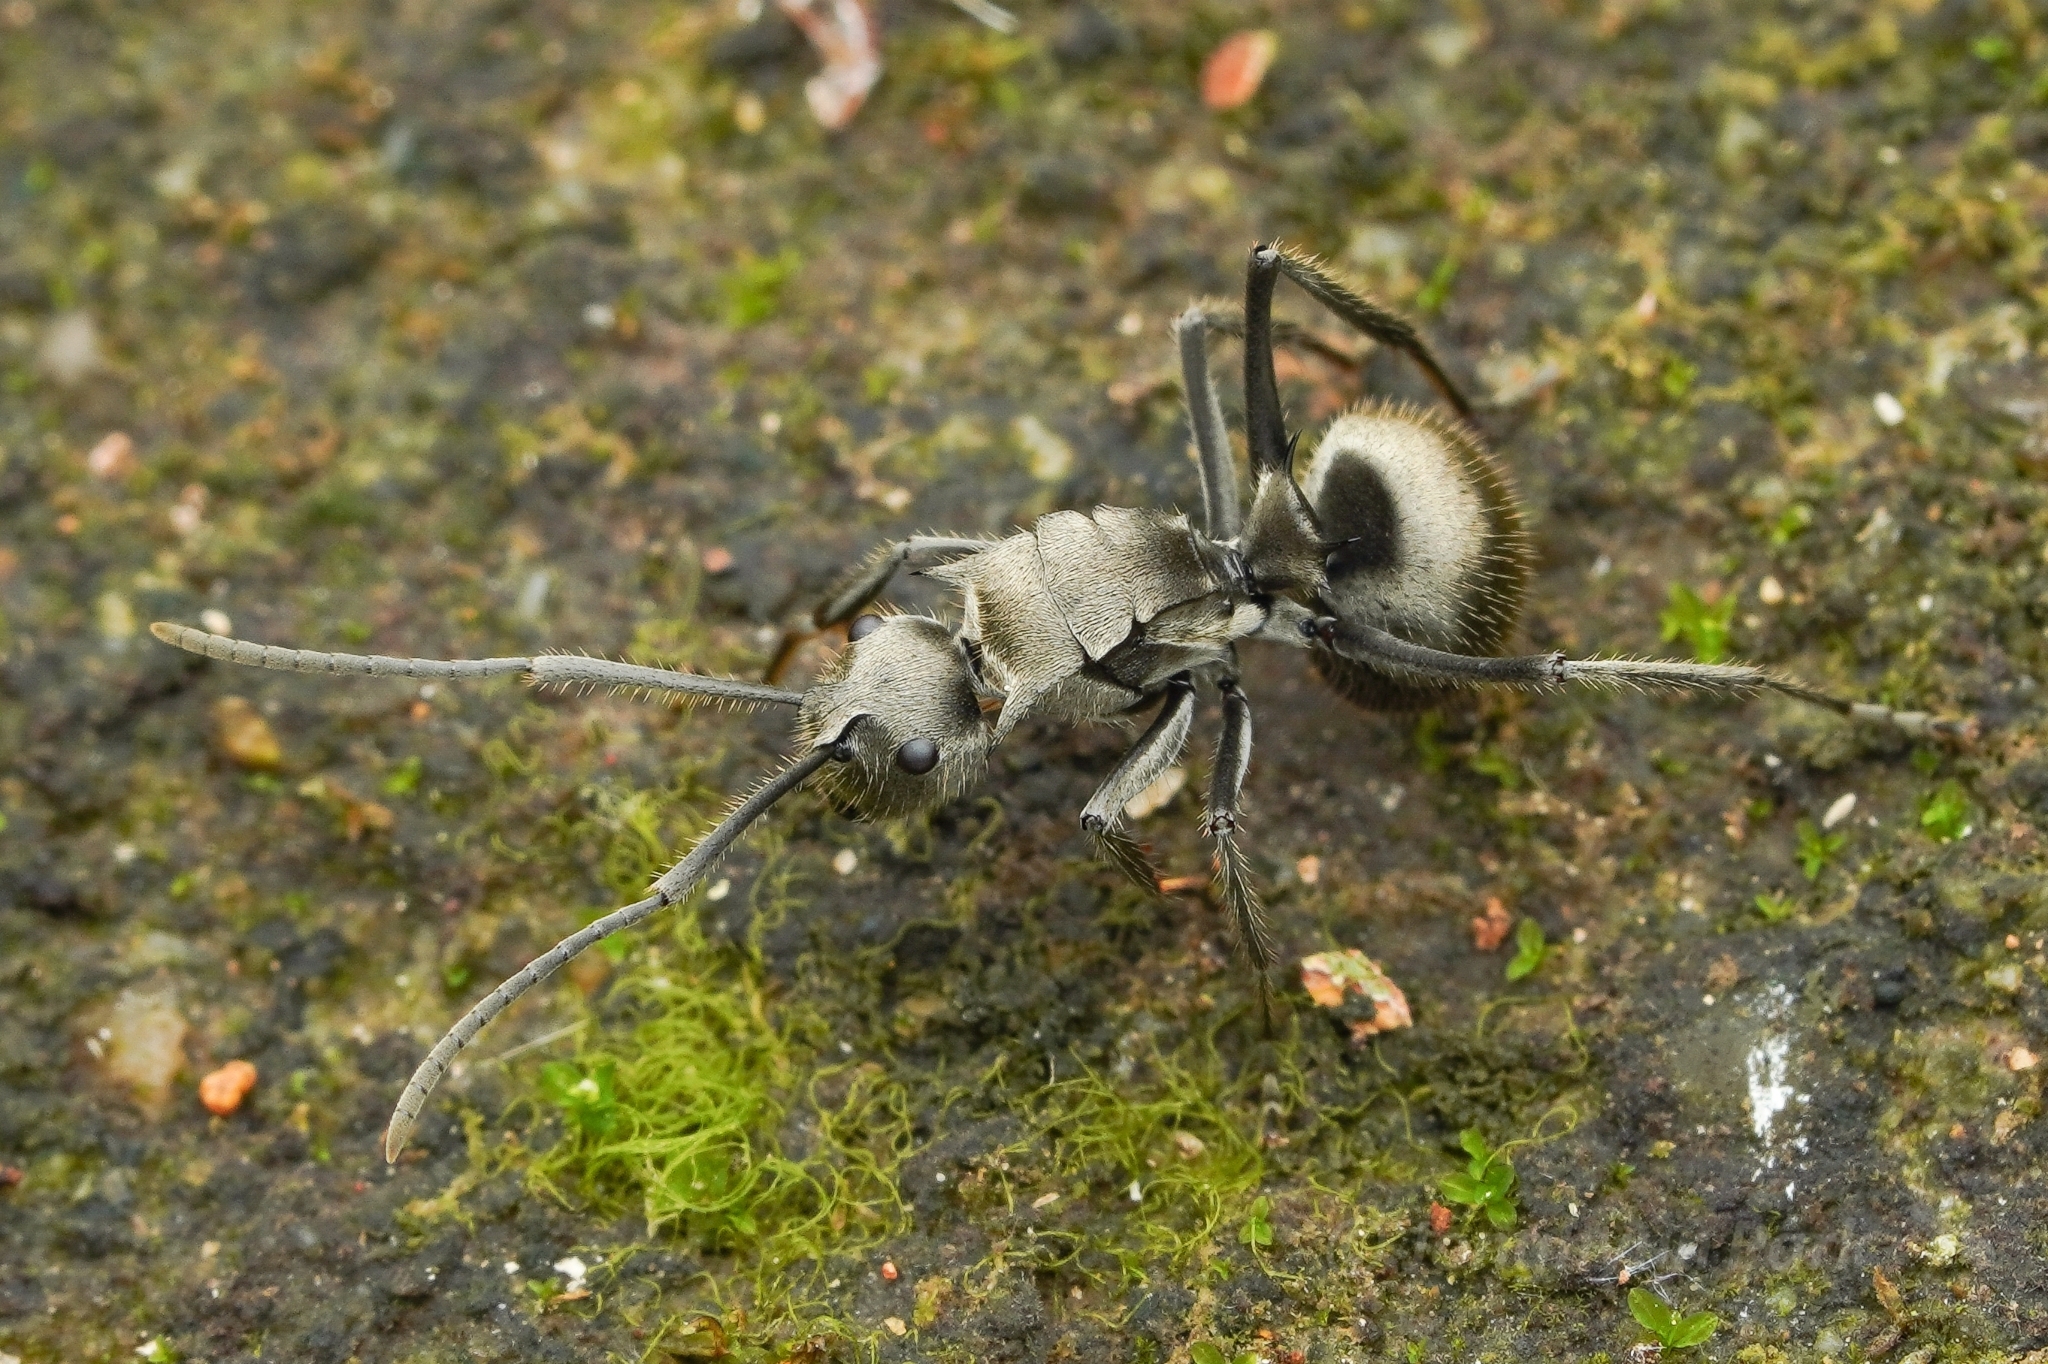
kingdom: Animalia
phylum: Arthropoda
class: Insecta
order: Hymenoptera
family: Formicidae
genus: Polyrhachis
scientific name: Polyrhachis illaudata
